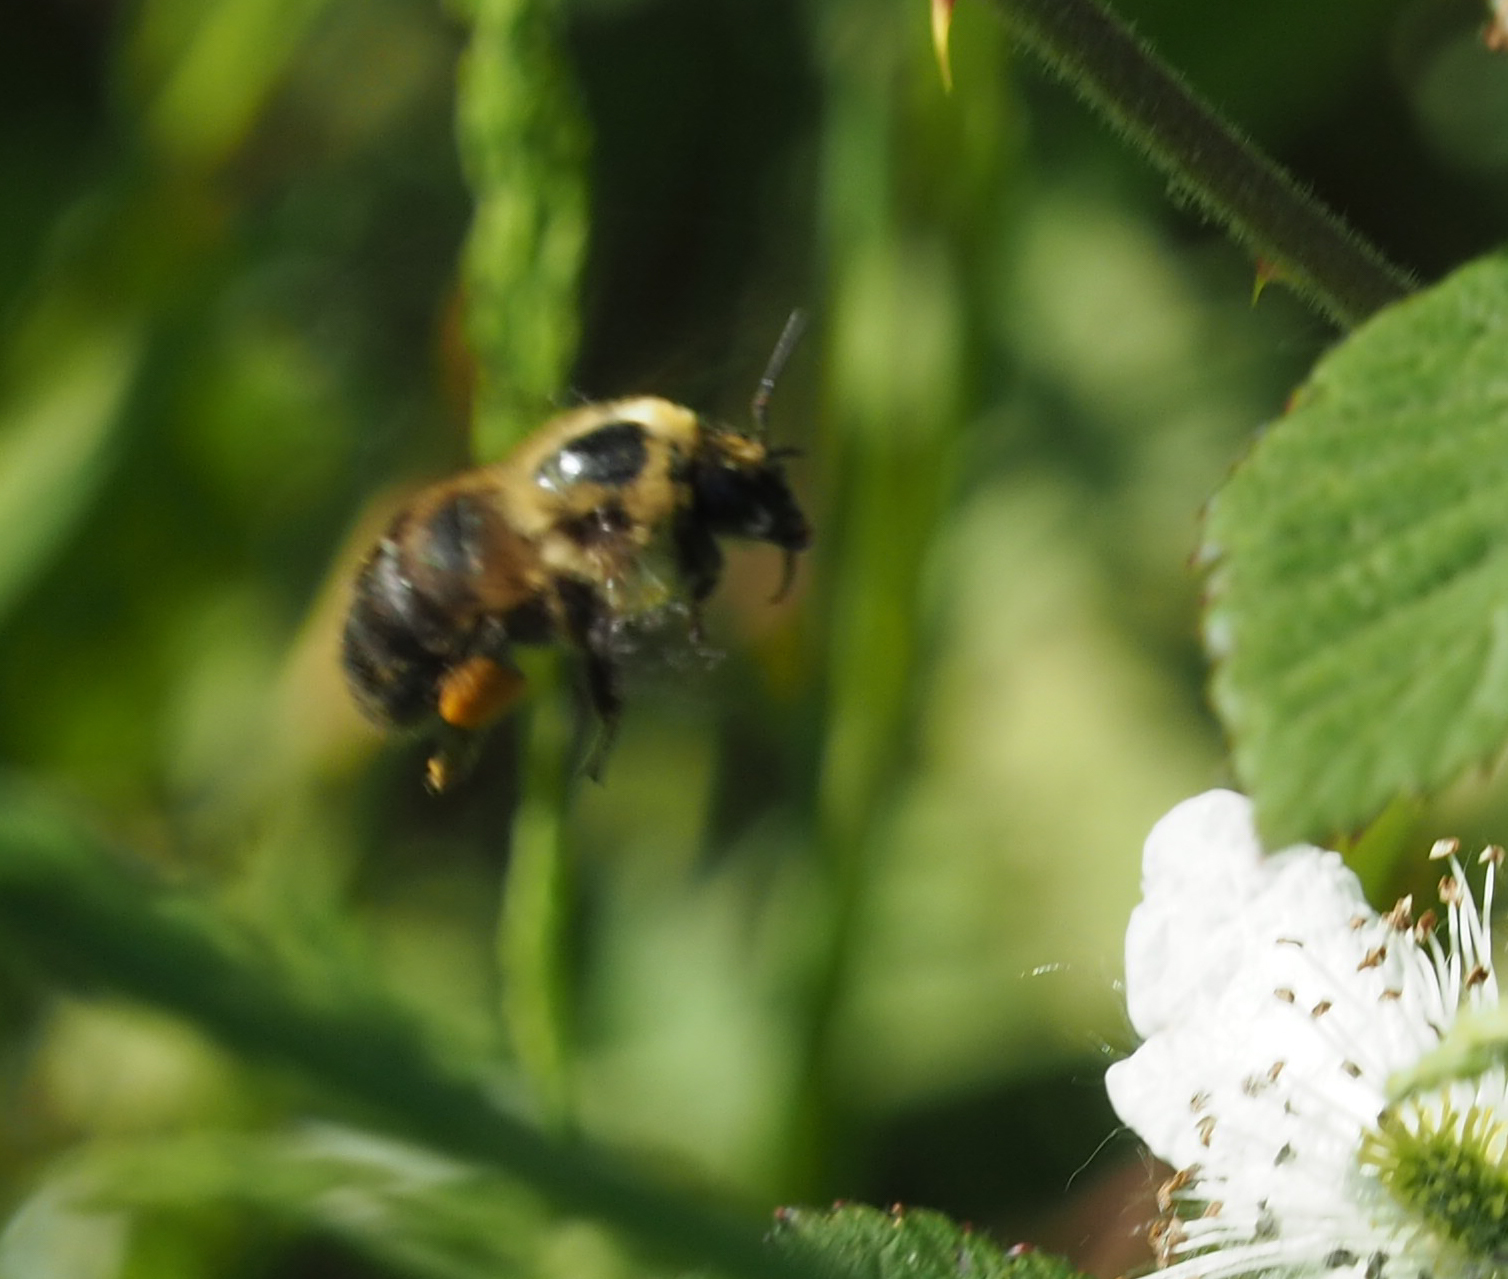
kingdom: Animalia
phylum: Arthropoda
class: Insecta
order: Hymenoptera
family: Apidae
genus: Bombus
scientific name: Bombus griseocollis
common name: Brown-belted bumble bee
